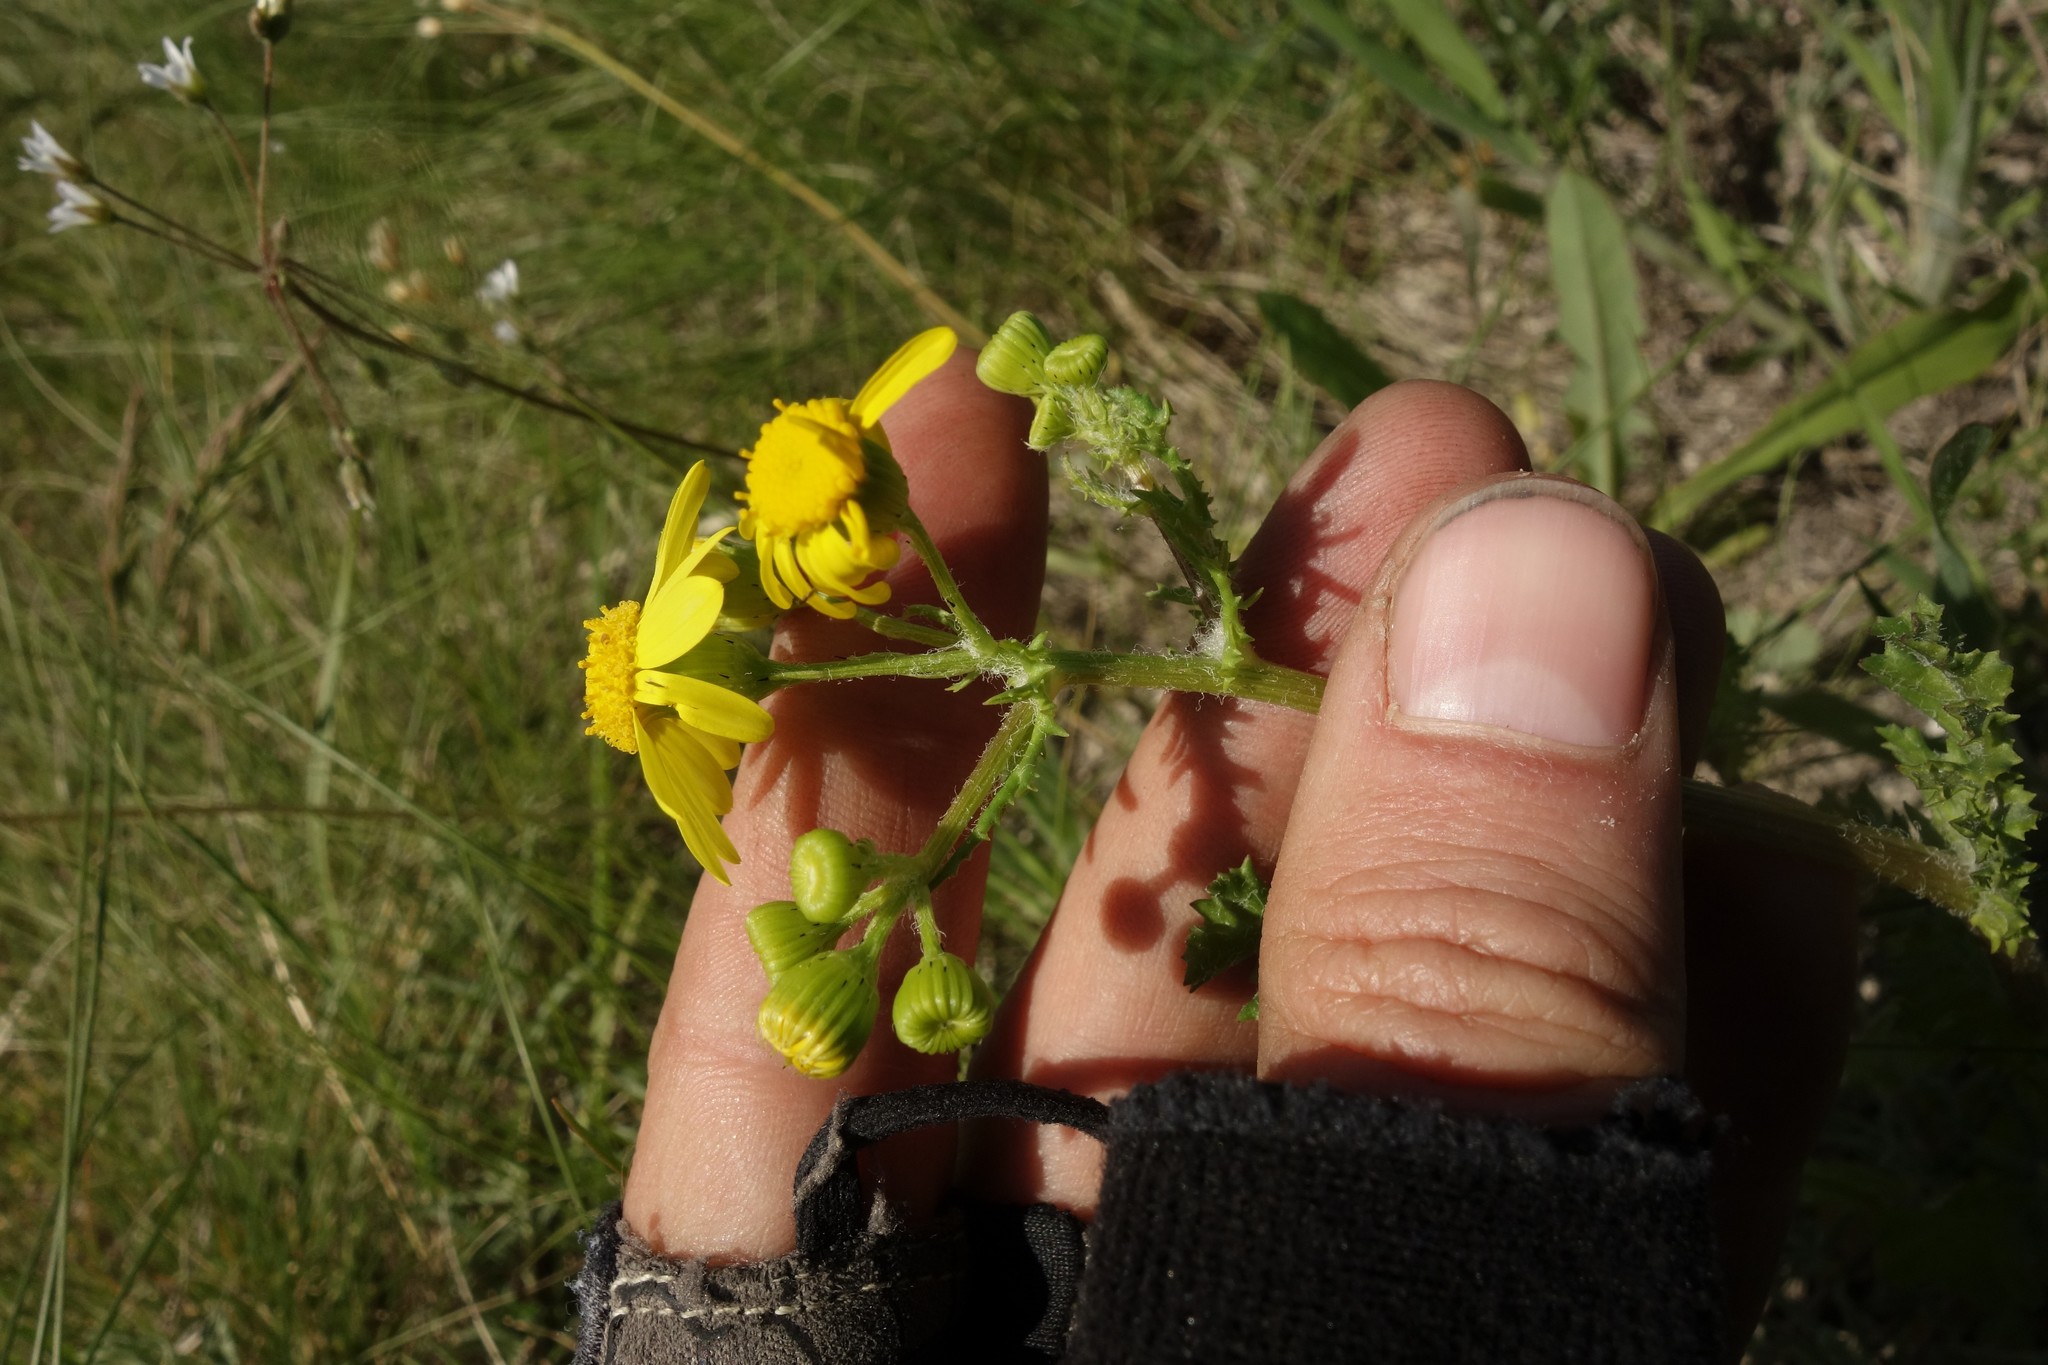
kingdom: Plantae
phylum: Tracheophyta
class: Magnoliopsida
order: Asterales
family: Asteraceae
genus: Senecio
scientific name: Senecio vernalis
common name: Eastern groundsel
